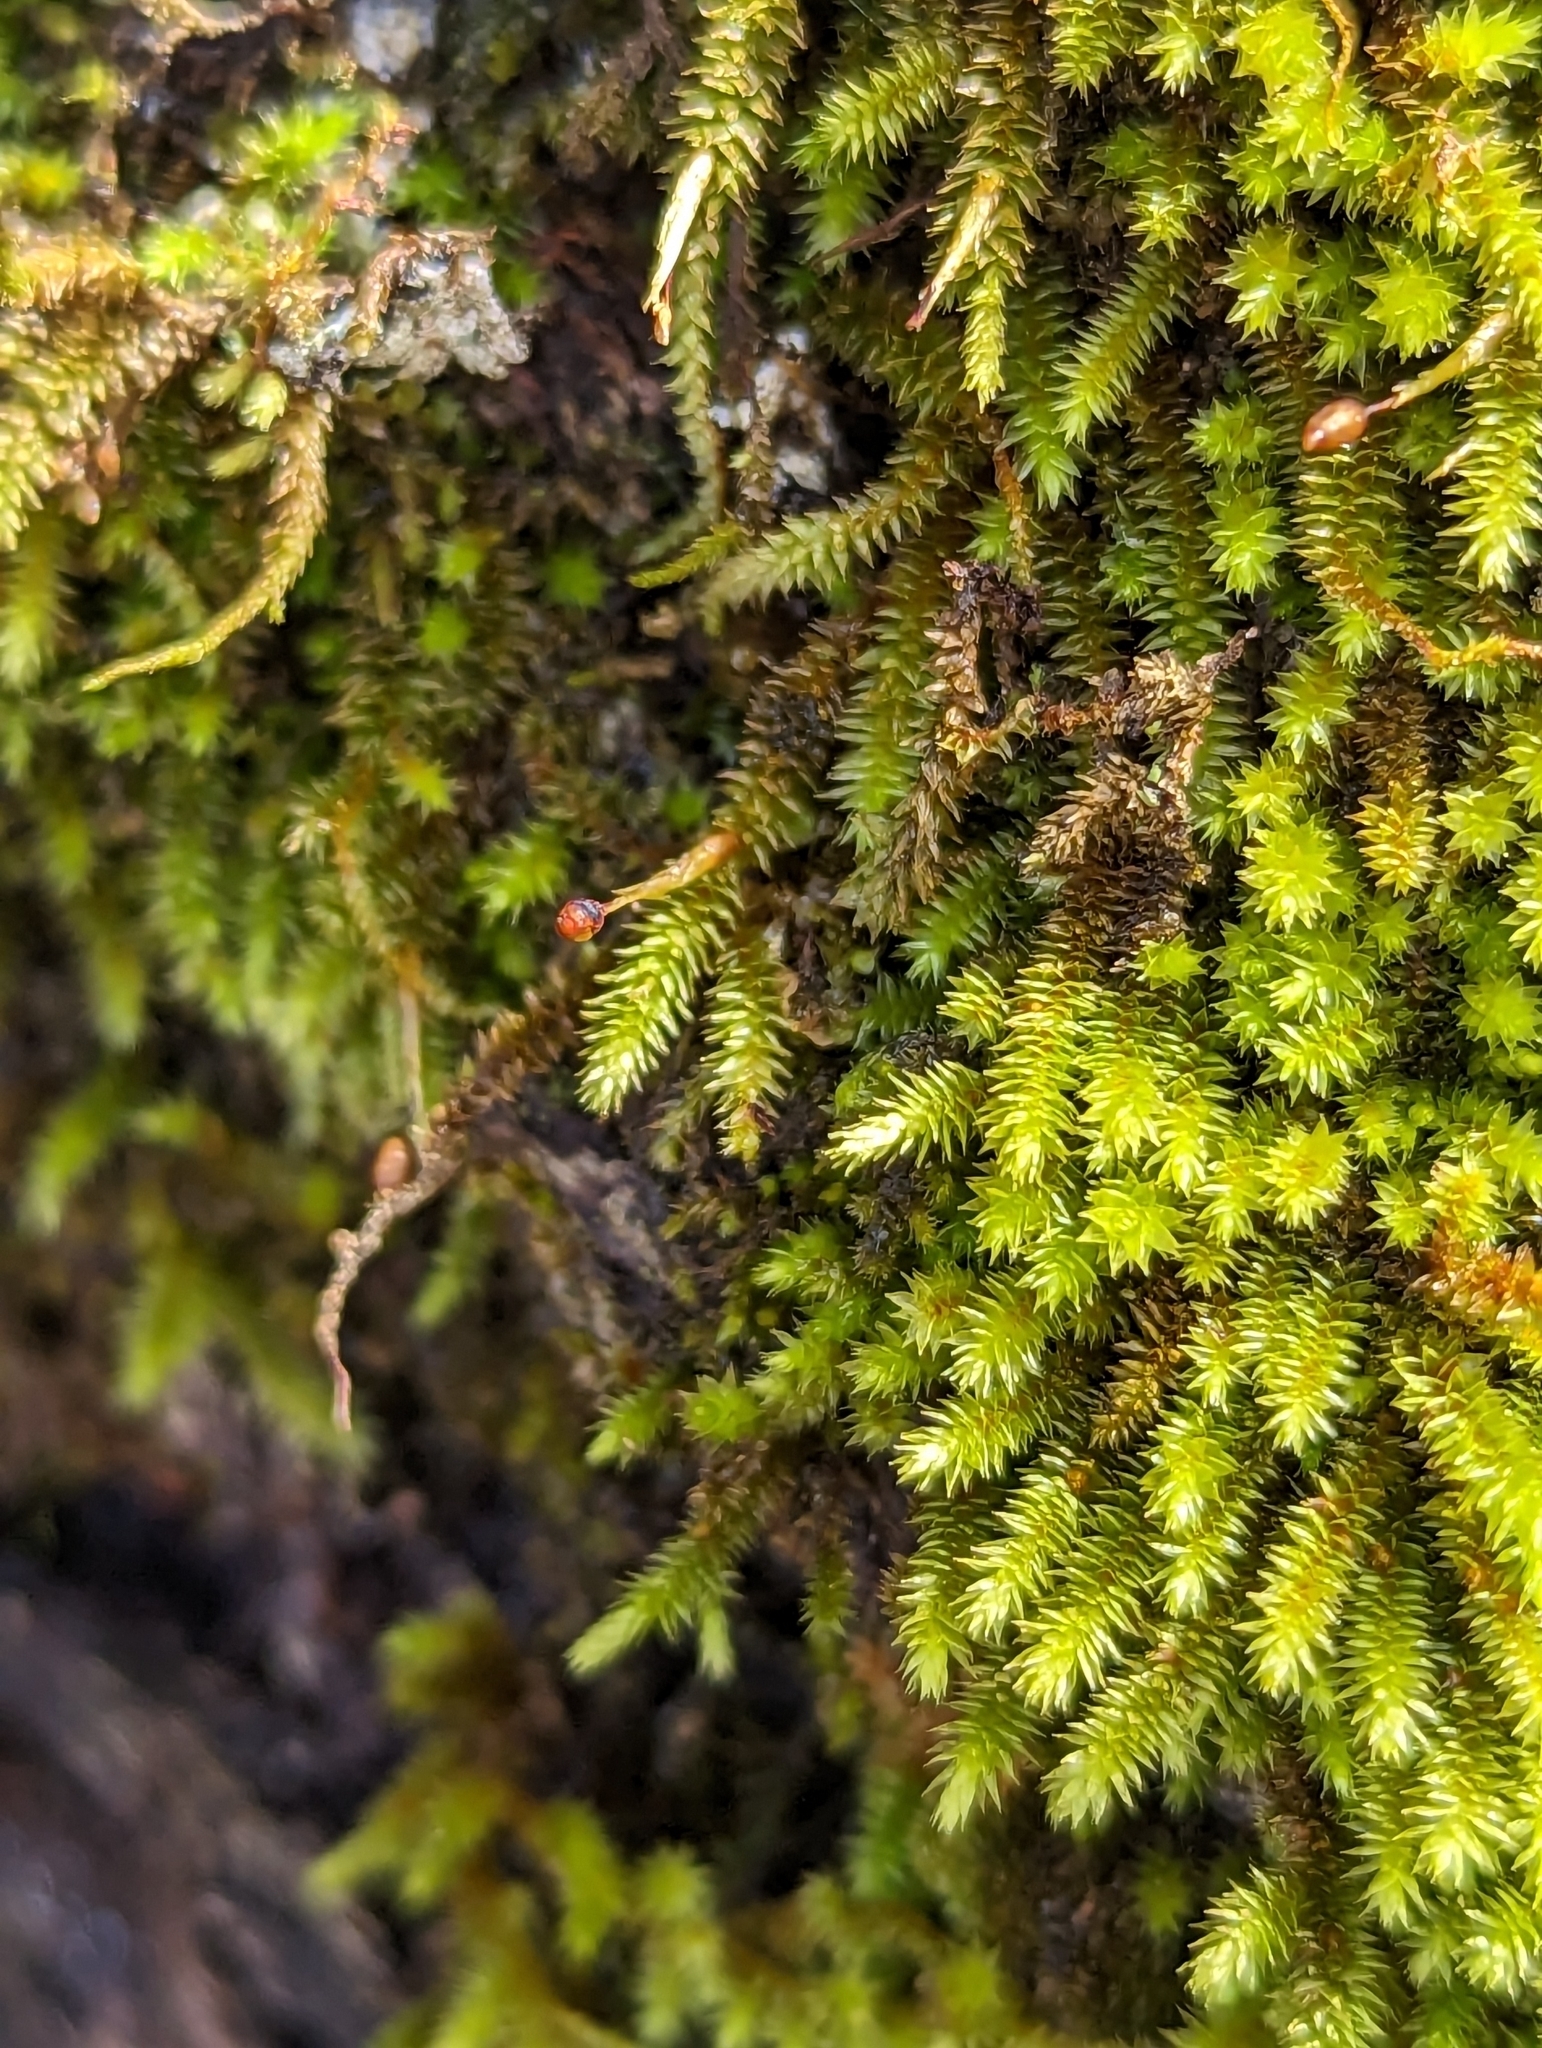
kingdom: Plantae
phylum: Bryophyta
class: Bryopsida
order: Hypnales
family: Leucodontaceae
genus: Leucodon
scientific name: Leucodon julaceus
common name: Smooth hook moss
